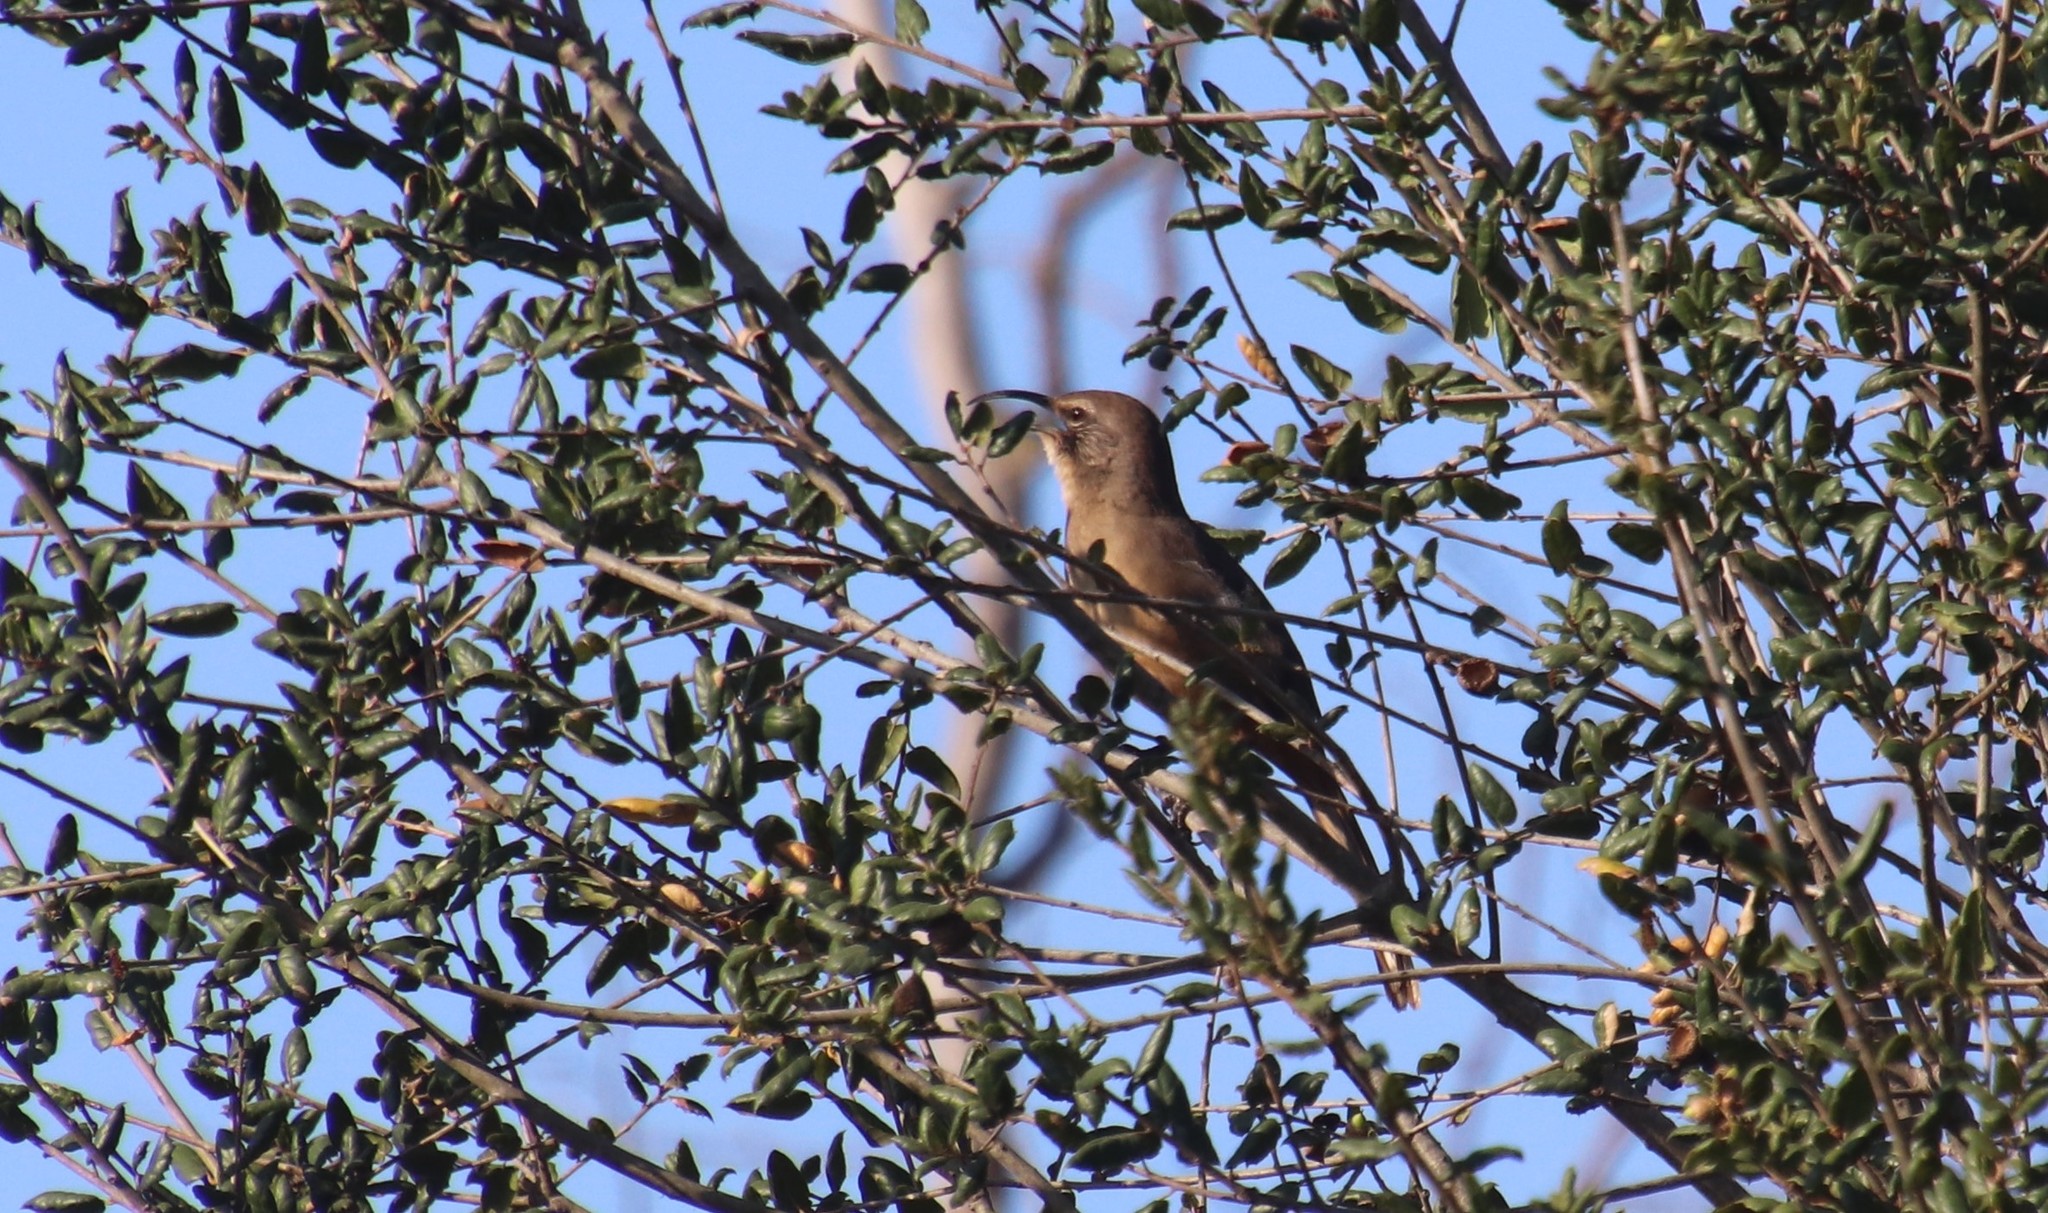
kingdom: Animalia
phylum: Chordata
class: Aves
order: Passeriformes
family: Mimidae
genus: Toxostoma
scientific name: Toxostoma redivivum
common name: California thrasher
